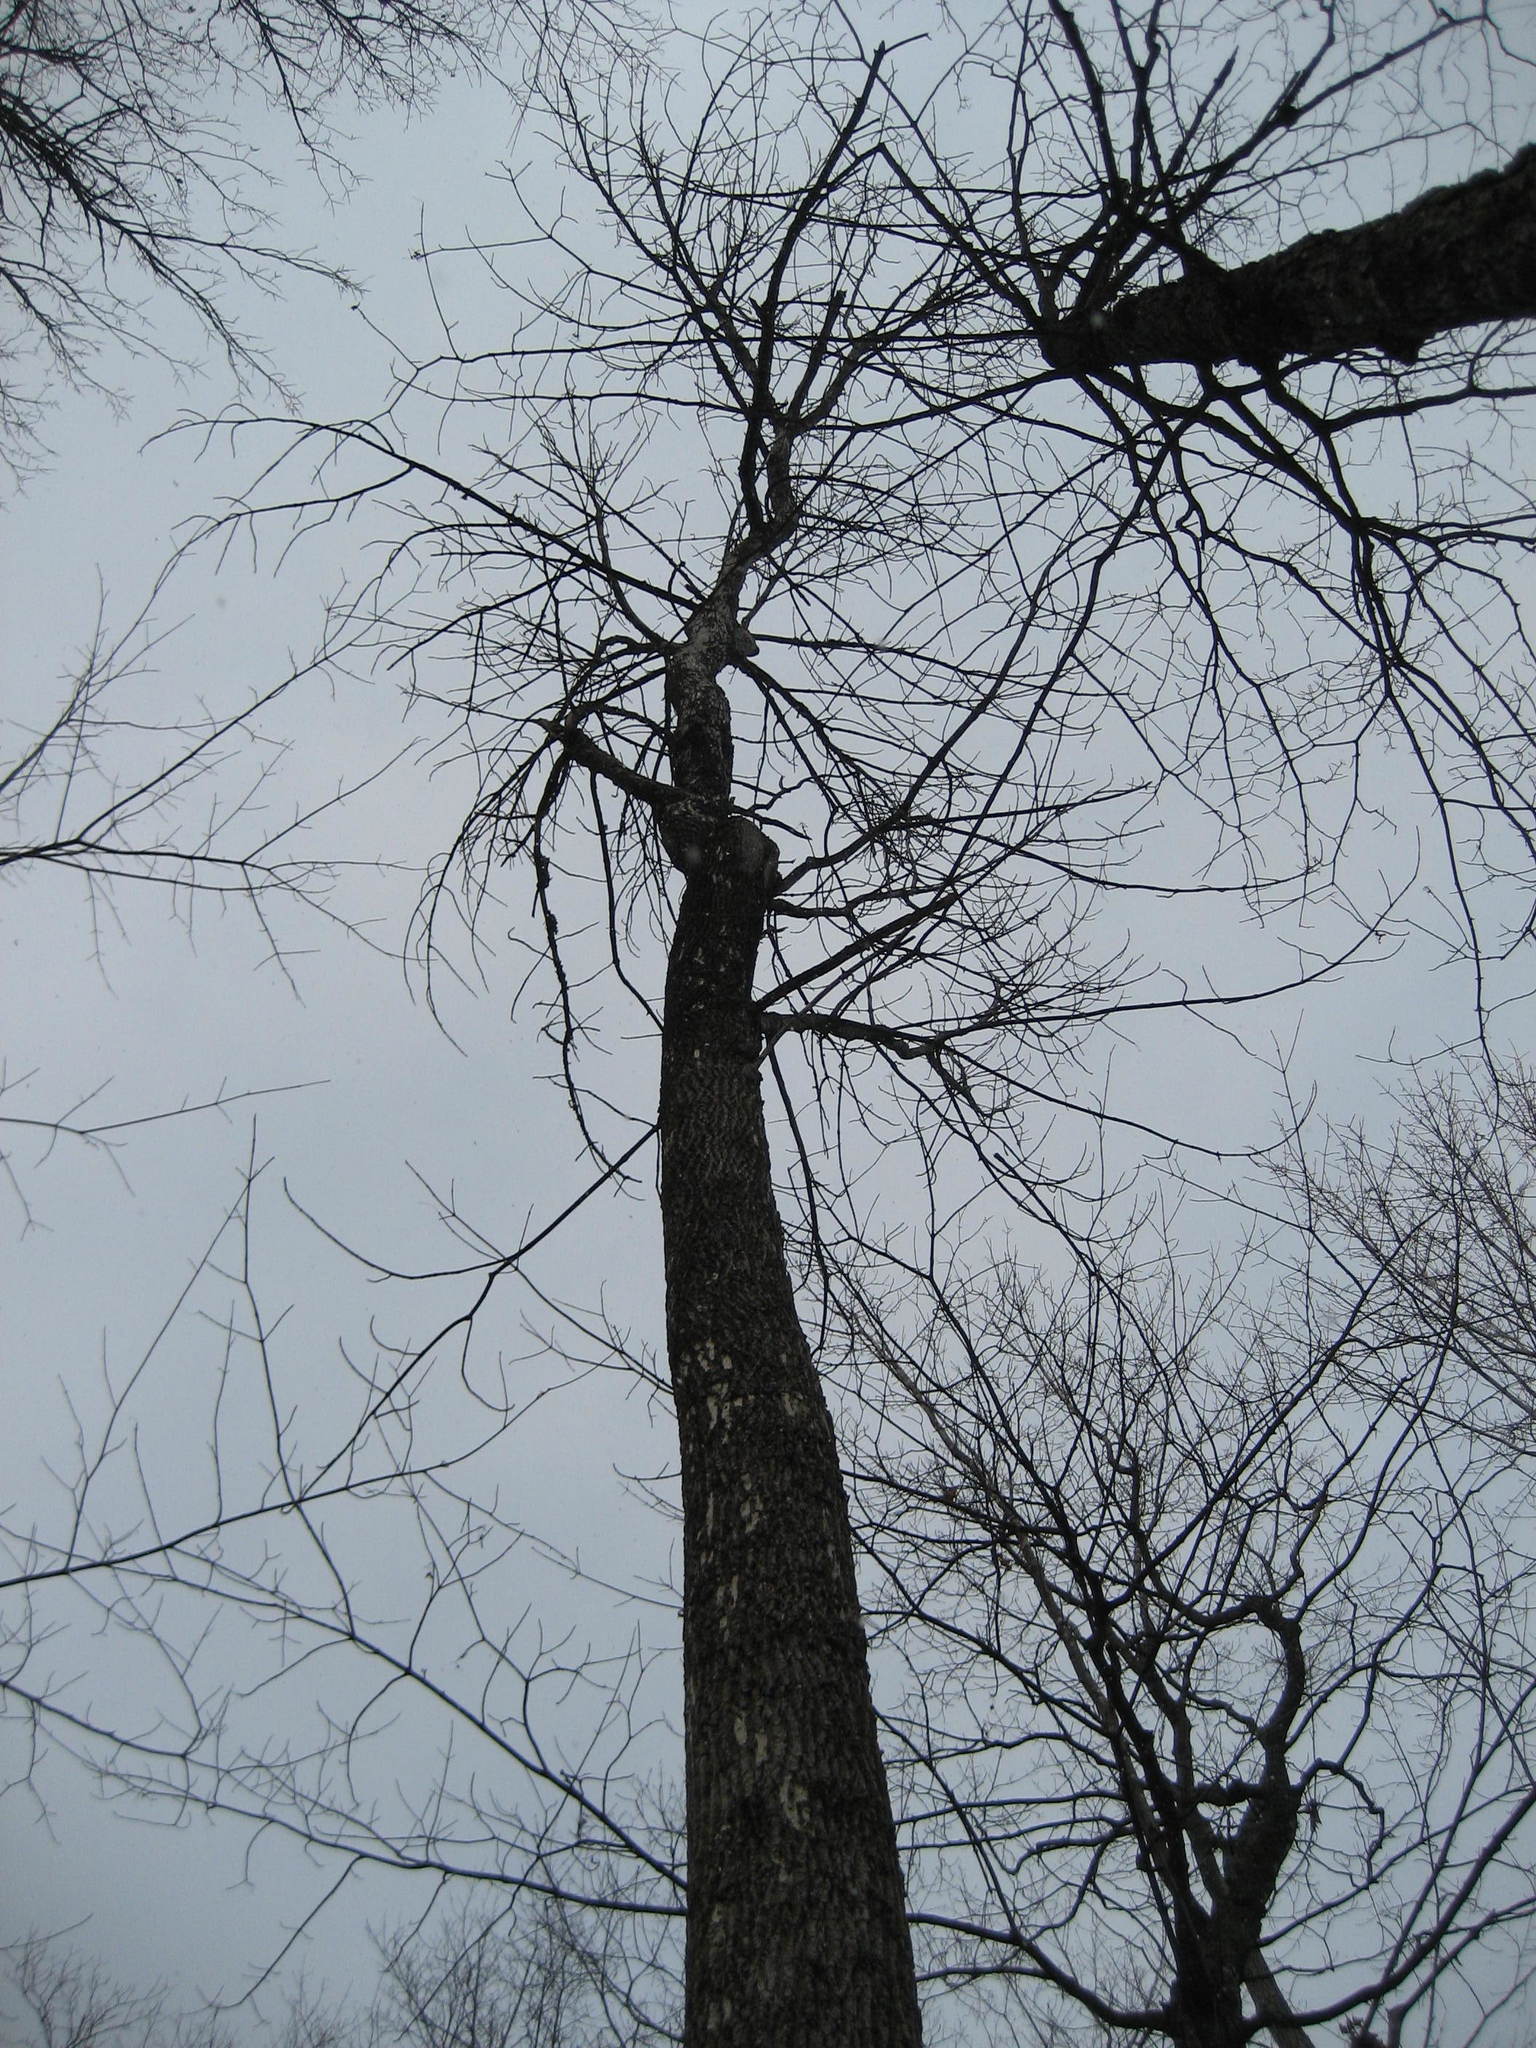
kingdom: Plantae
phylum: Tracheophyta
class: Magnoliopsida
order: Lamiales
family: Oleaceae
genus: Fraxinus
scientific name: Fraxinus americana
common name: White ash
